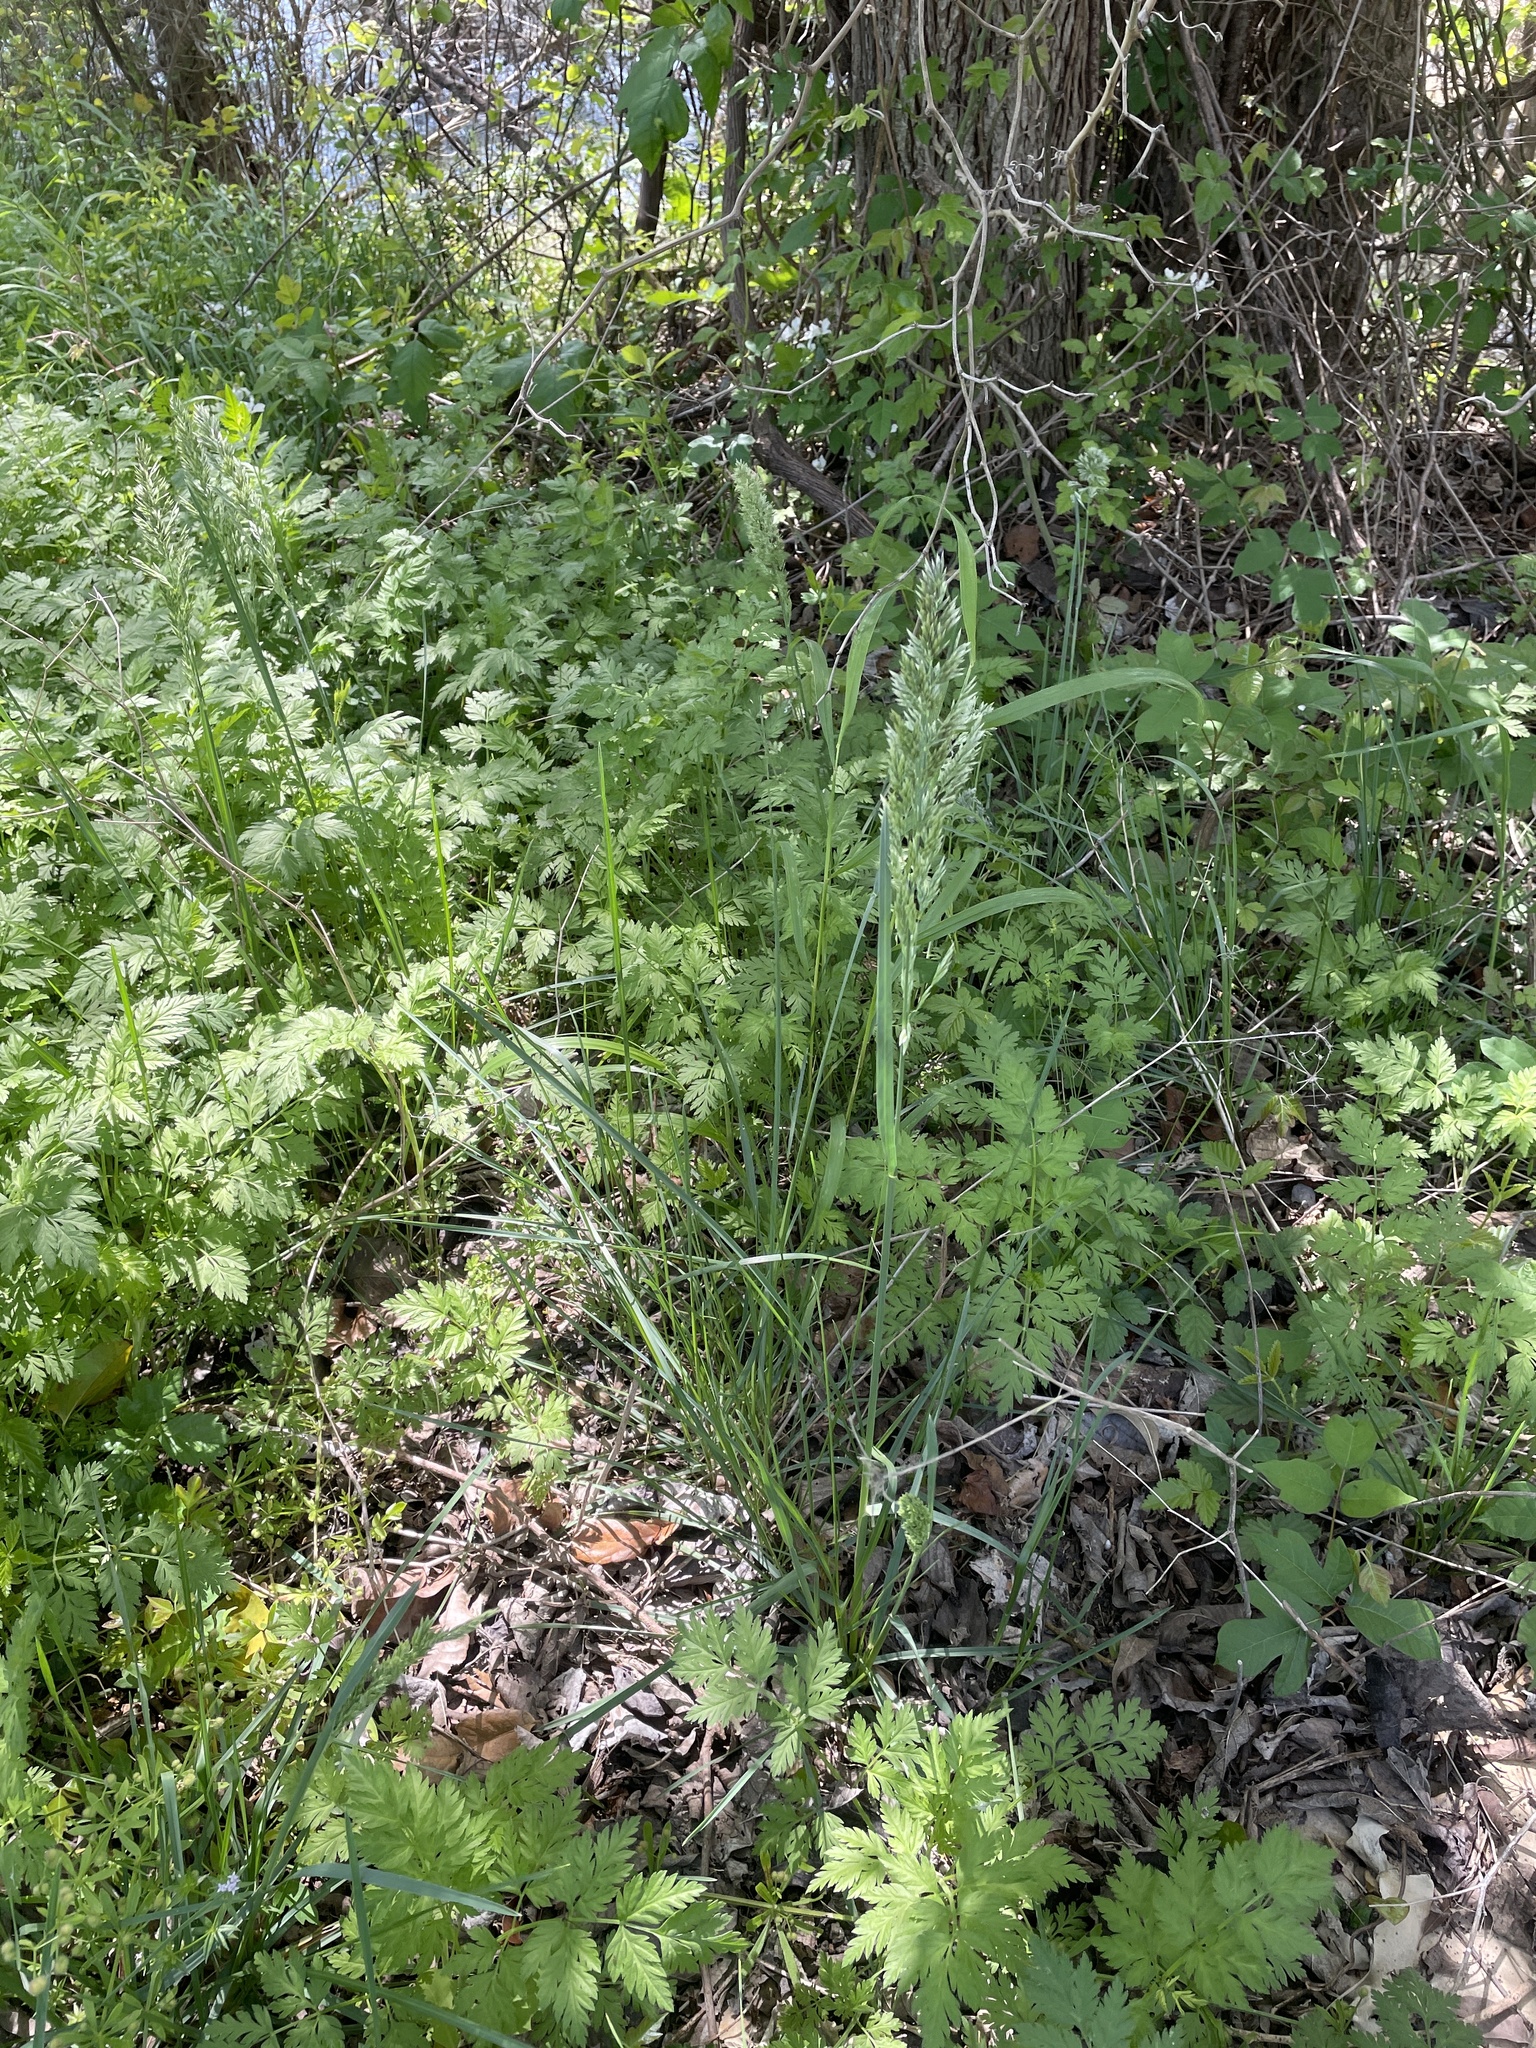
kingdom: Plantae
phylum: Tracheophyta
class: Liliopsida
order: Poales
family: Poaceae
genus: Poa
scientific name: Poa arachnifera
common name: Texas bluegrass
